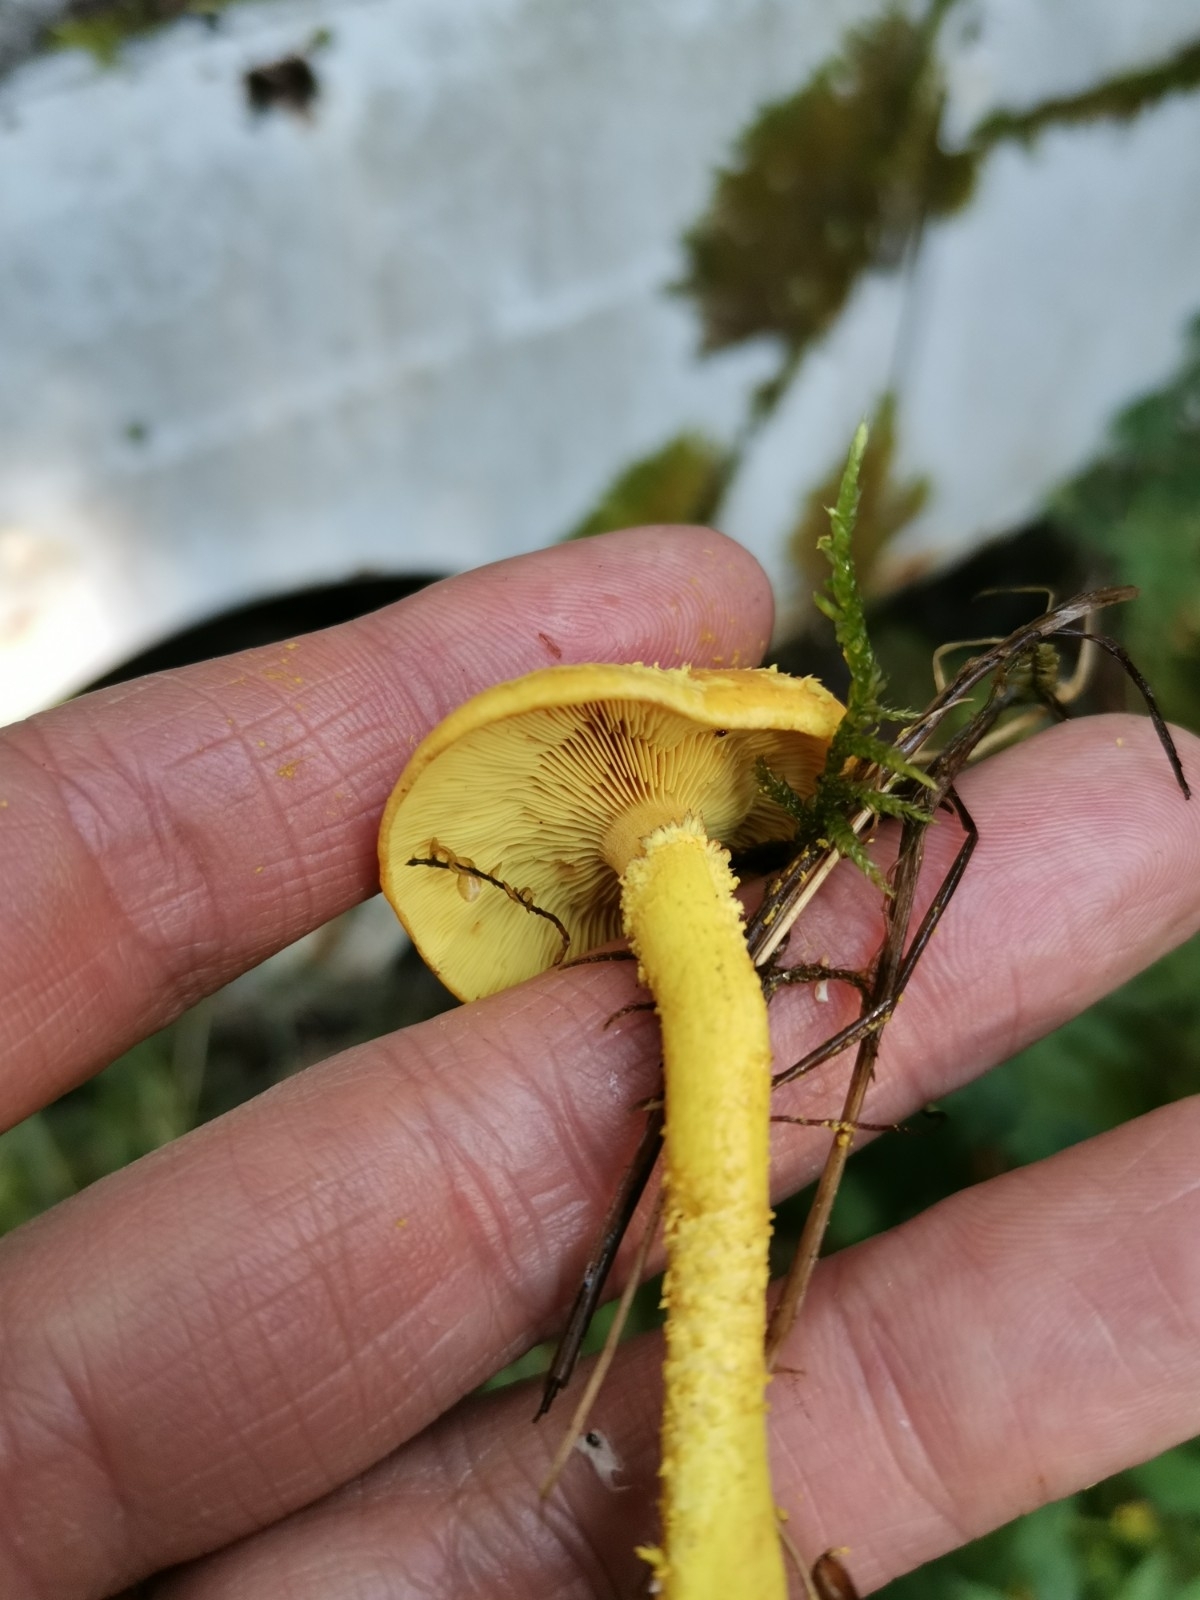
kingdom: Fungi
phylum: Basidiomycota
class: Agaricomycetes
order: Agaricales
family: Strophariaceae
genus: Pholiota
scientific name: Pholiota flammans
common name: Flaming scalycap
